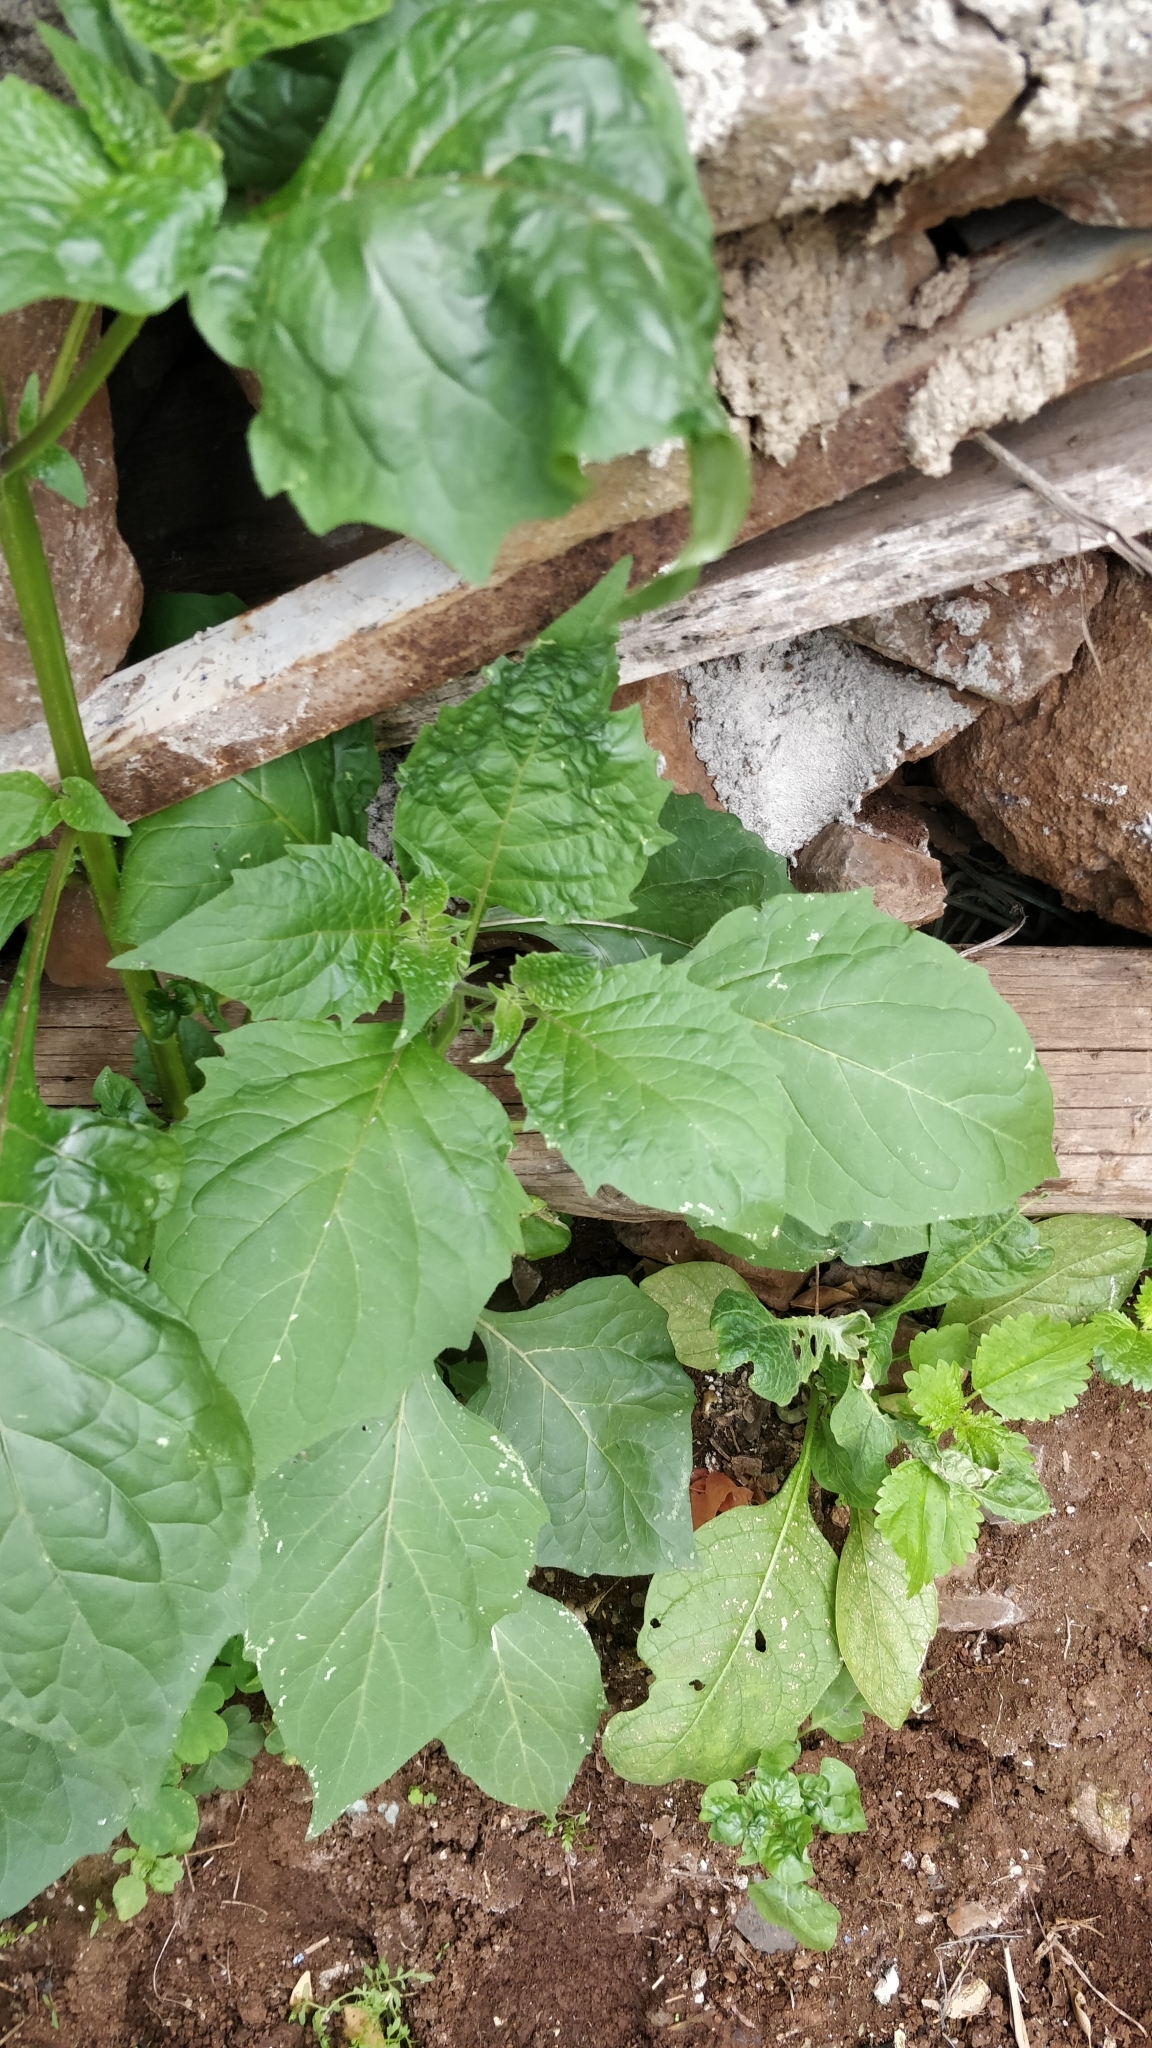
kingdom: Plantae
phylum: Tracheophyta
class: Magnoliopsida
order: Solanales
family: Solanaceae
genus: Solanum
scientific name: Solanum nigrum
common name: Black nightshade
